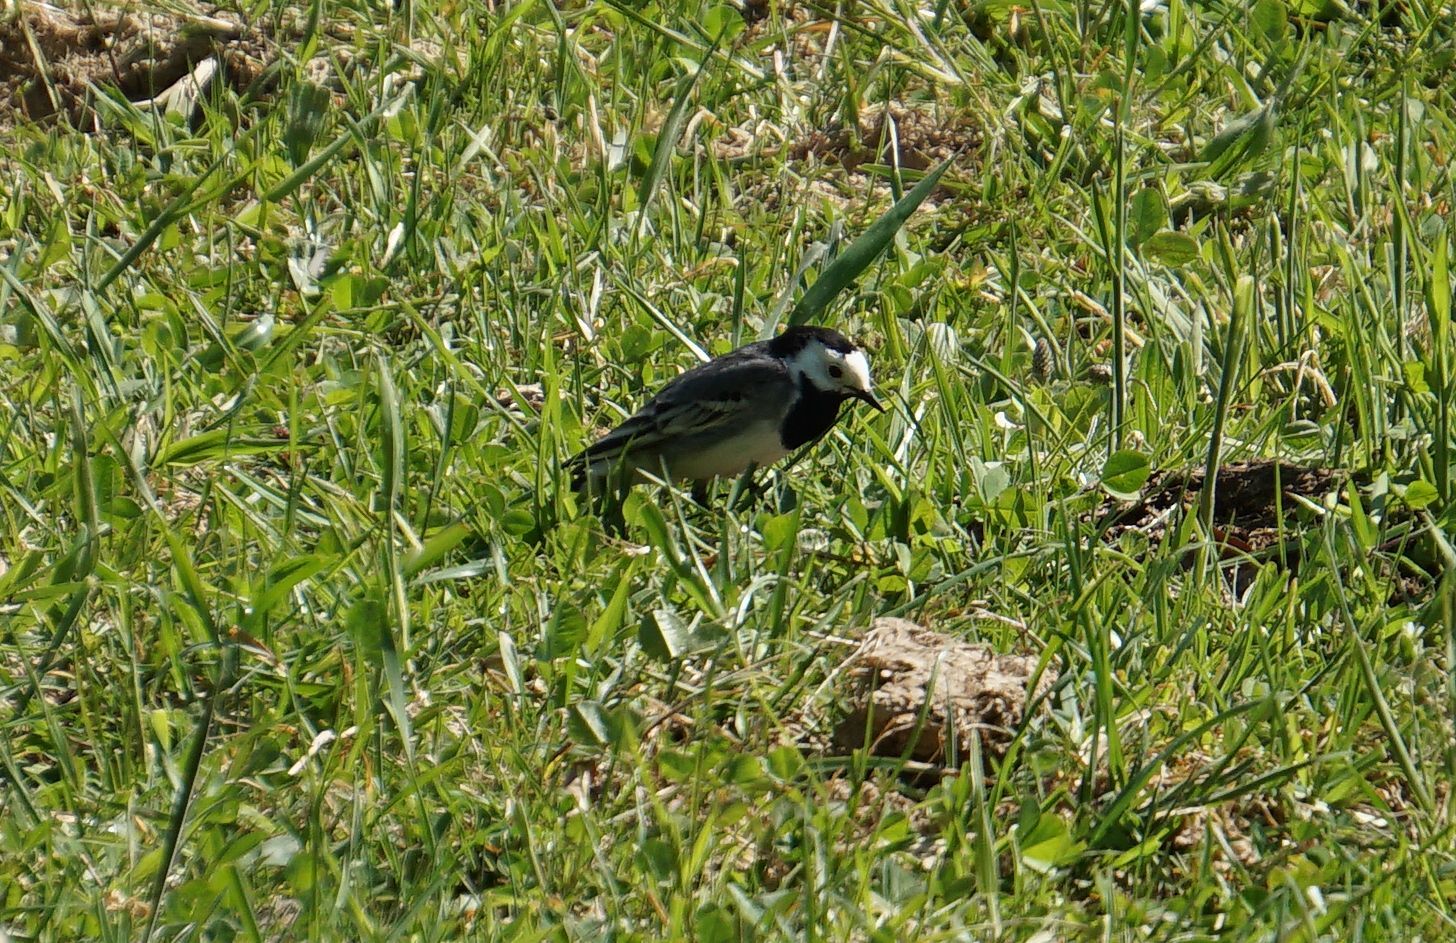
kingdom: Animalia
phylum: Chordata
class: Aves
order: Passeriformes
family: Motacillidae
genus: Motacilla
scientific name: Motacilla alba
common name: White wagtail
